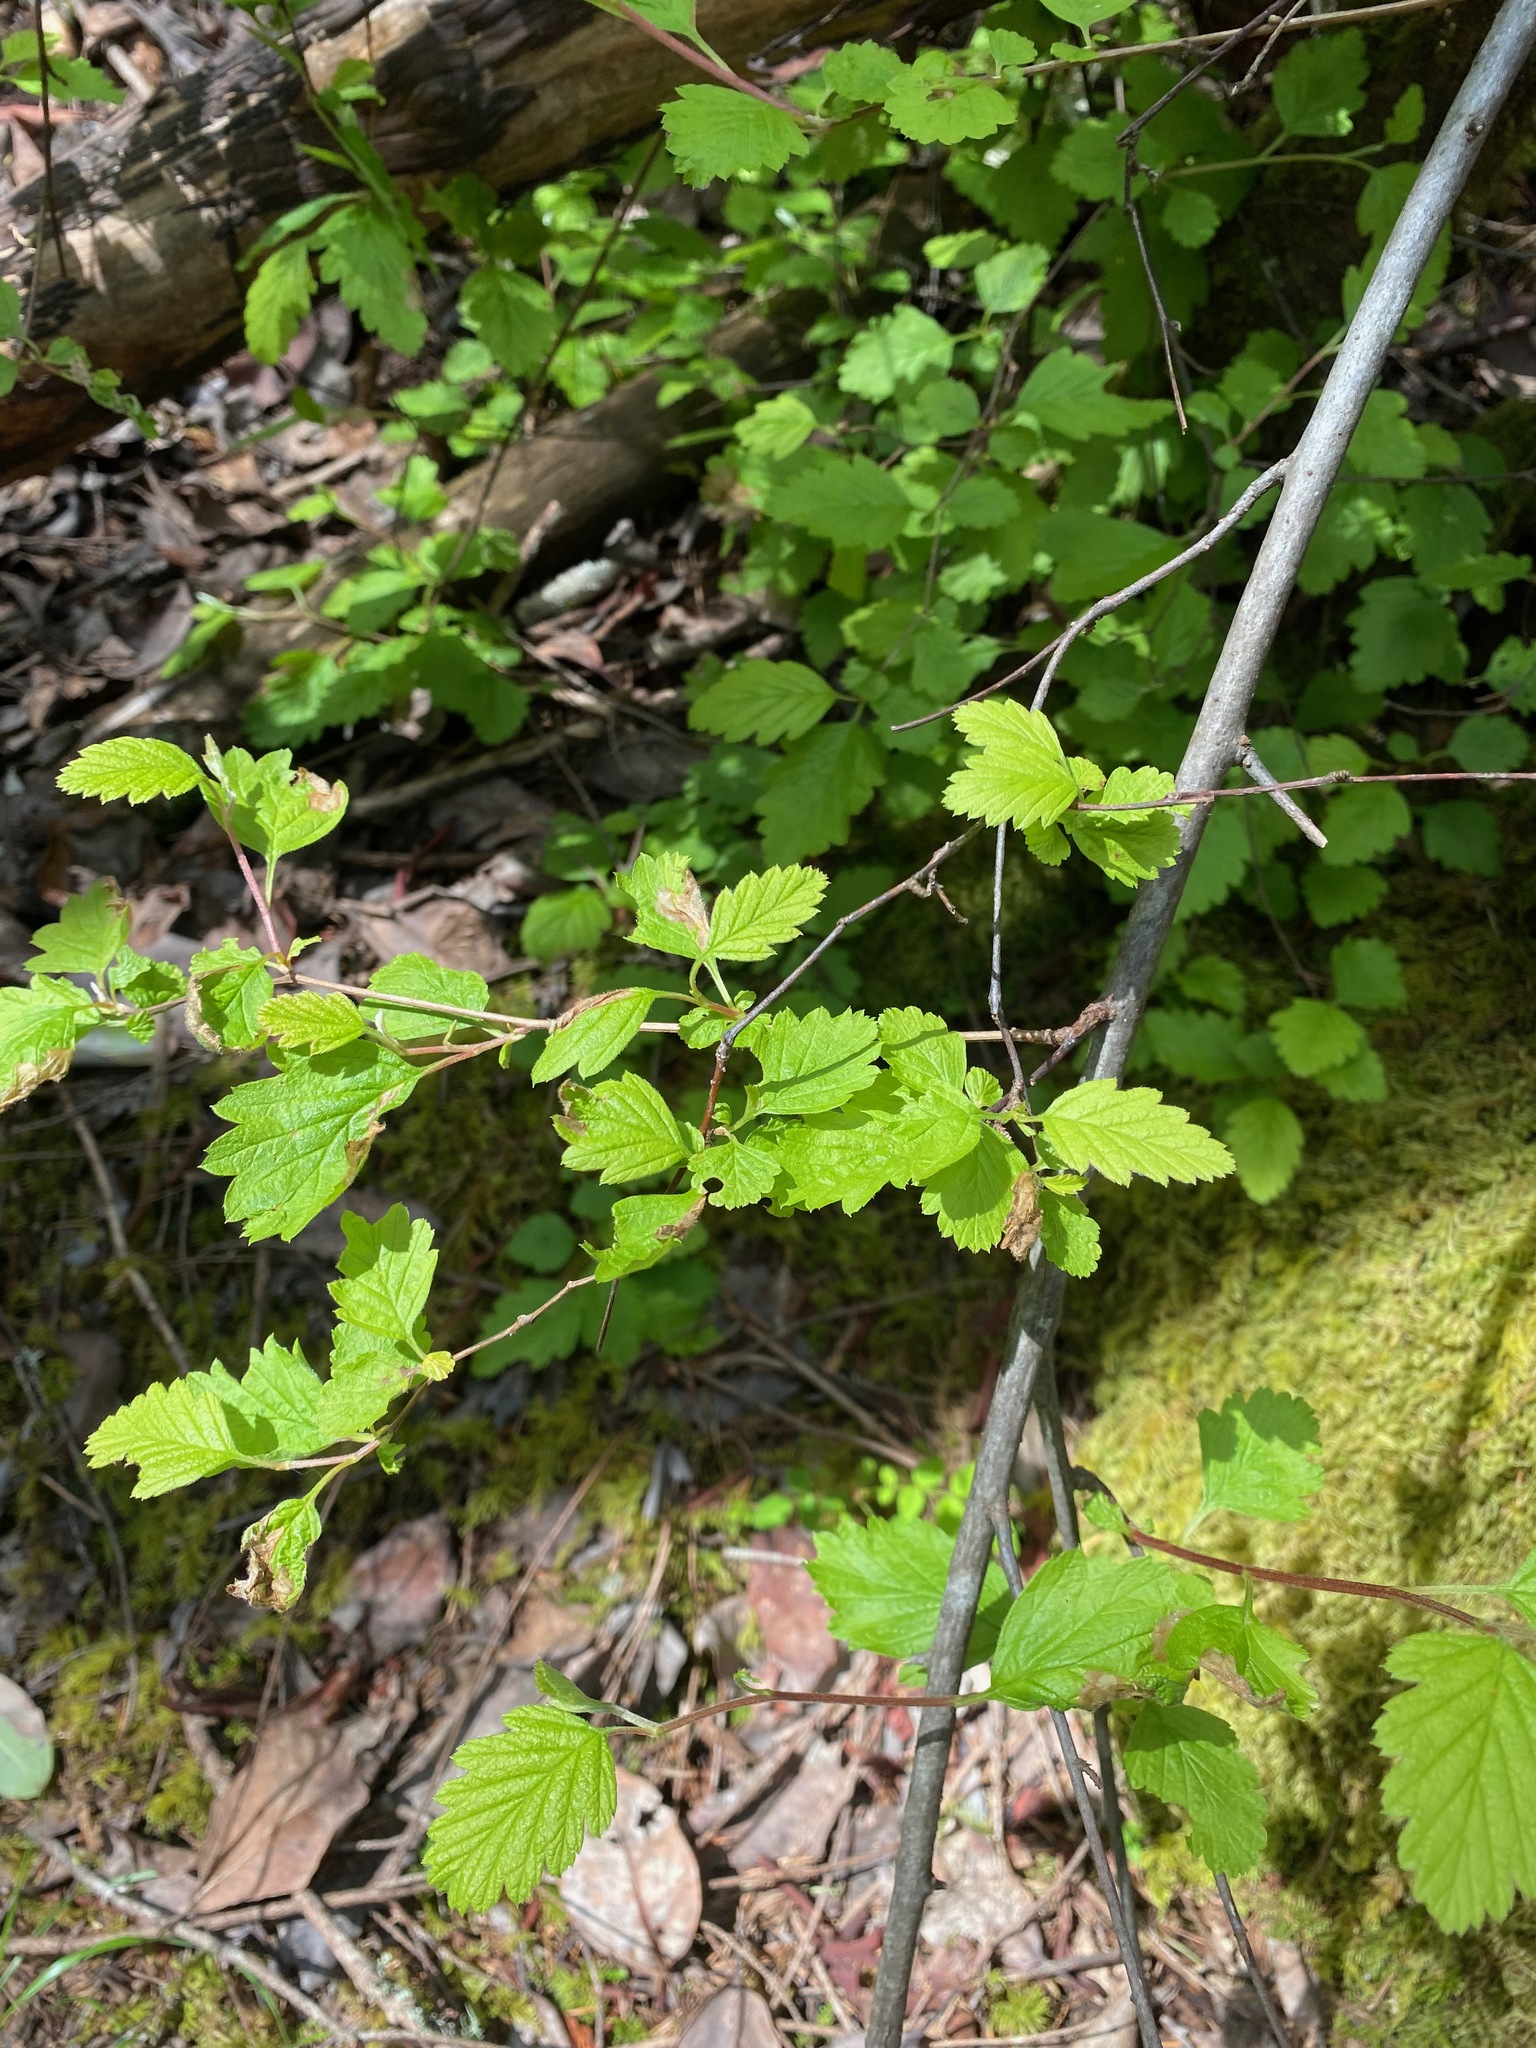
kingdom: Plantae
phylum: Tracheophyta
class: Magnoliopsida
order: Rosales
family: Rosaceae
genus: Holodiscus
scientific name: Holodiscus discolor
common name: Oceanspray
